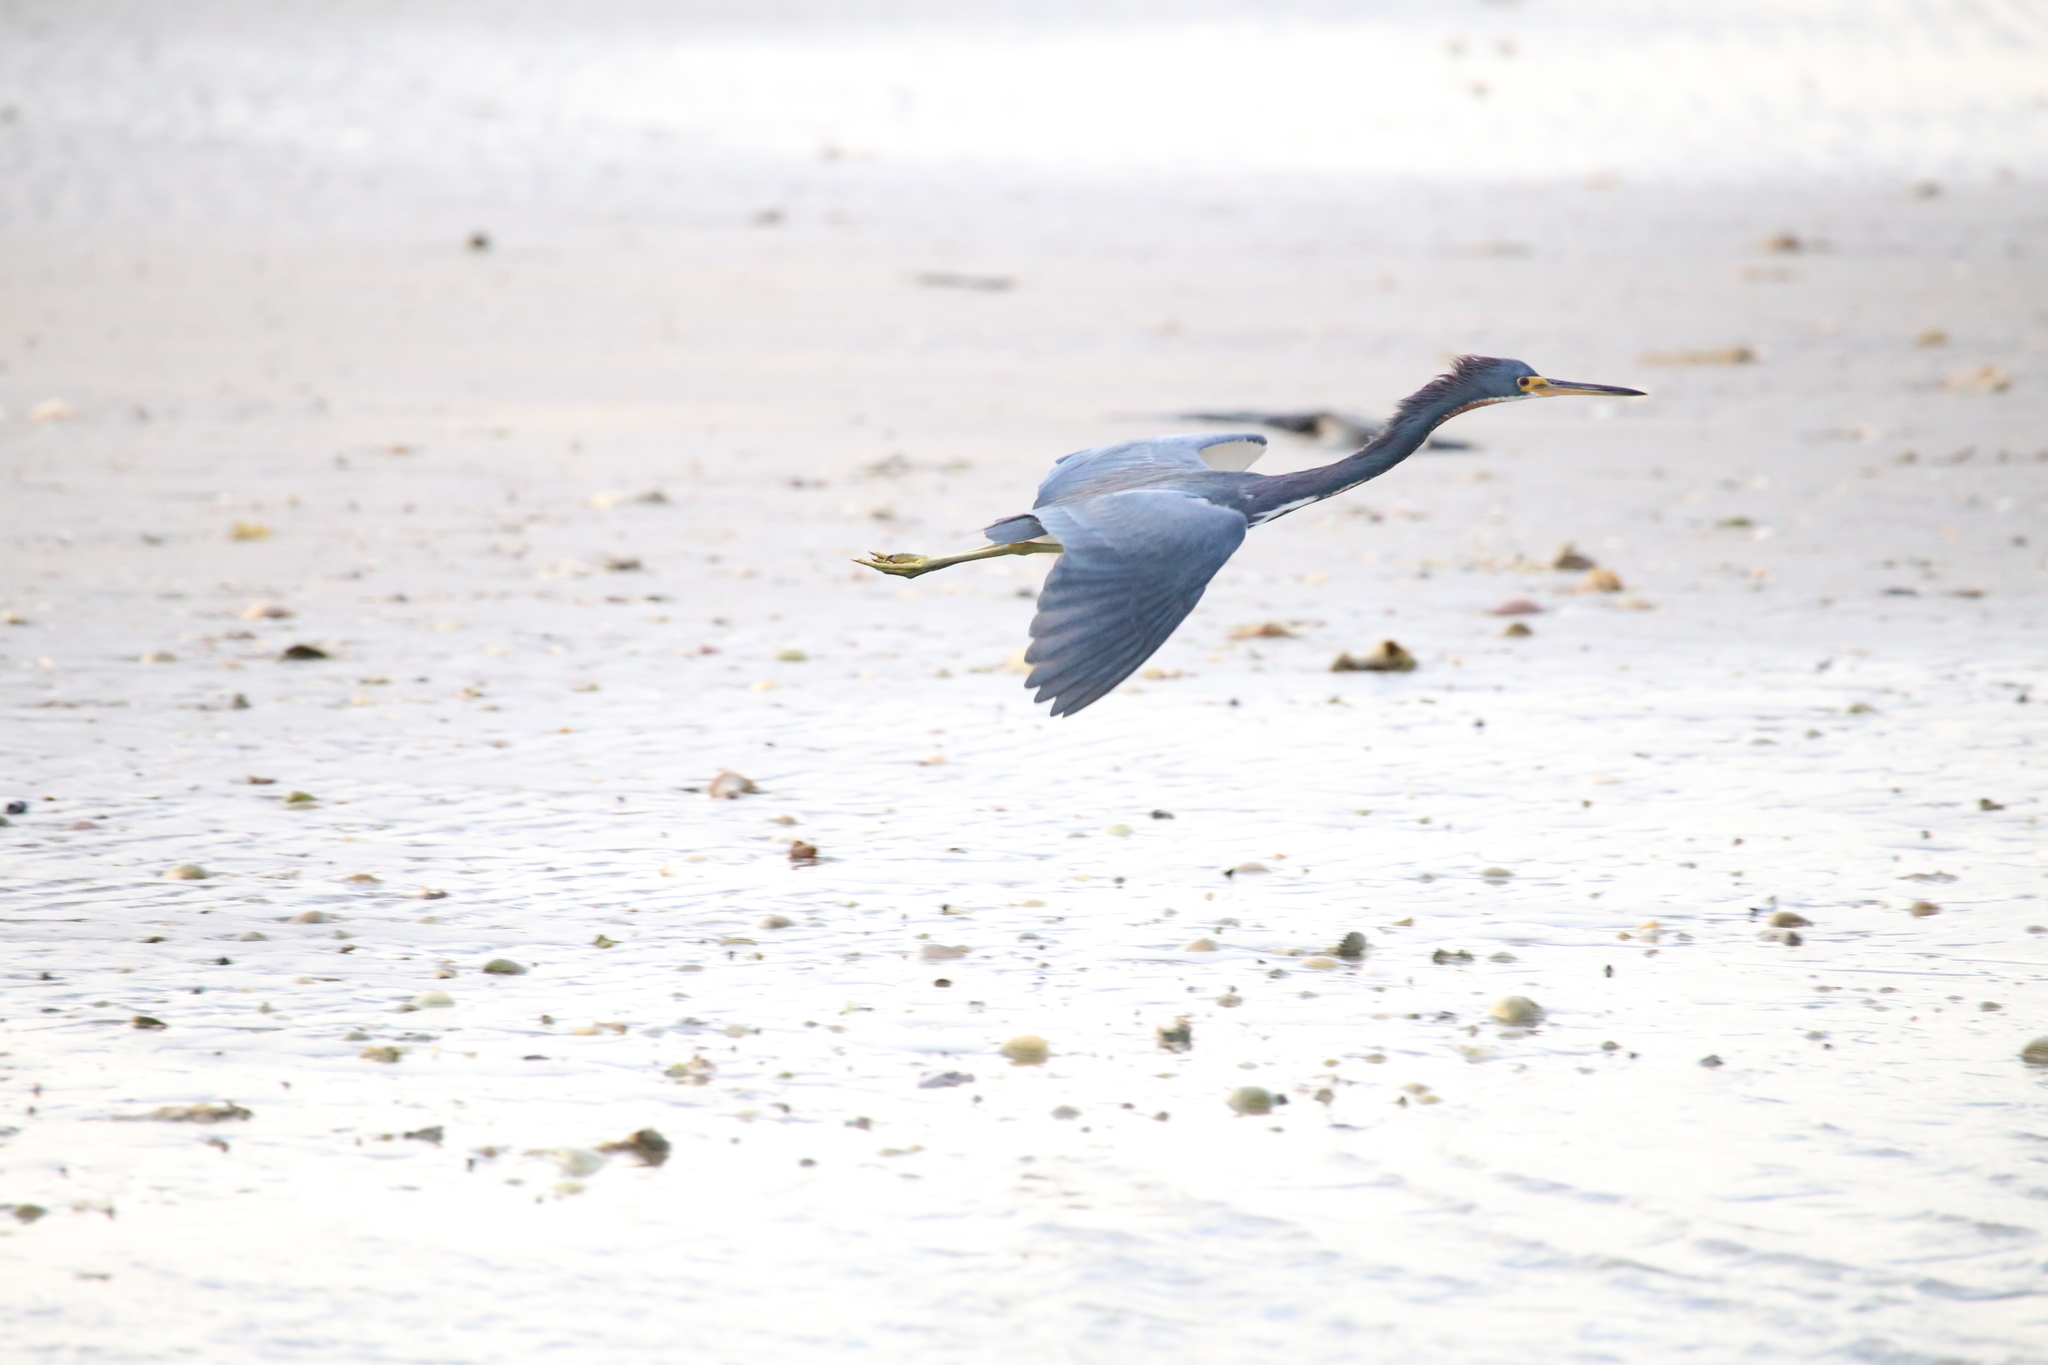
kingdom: Animalia
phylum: Chordata
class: Aves
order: Pelecaniformes
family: Ardeidae
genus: Egretta
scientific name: Egretta tricolor
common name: Tricolored heron
